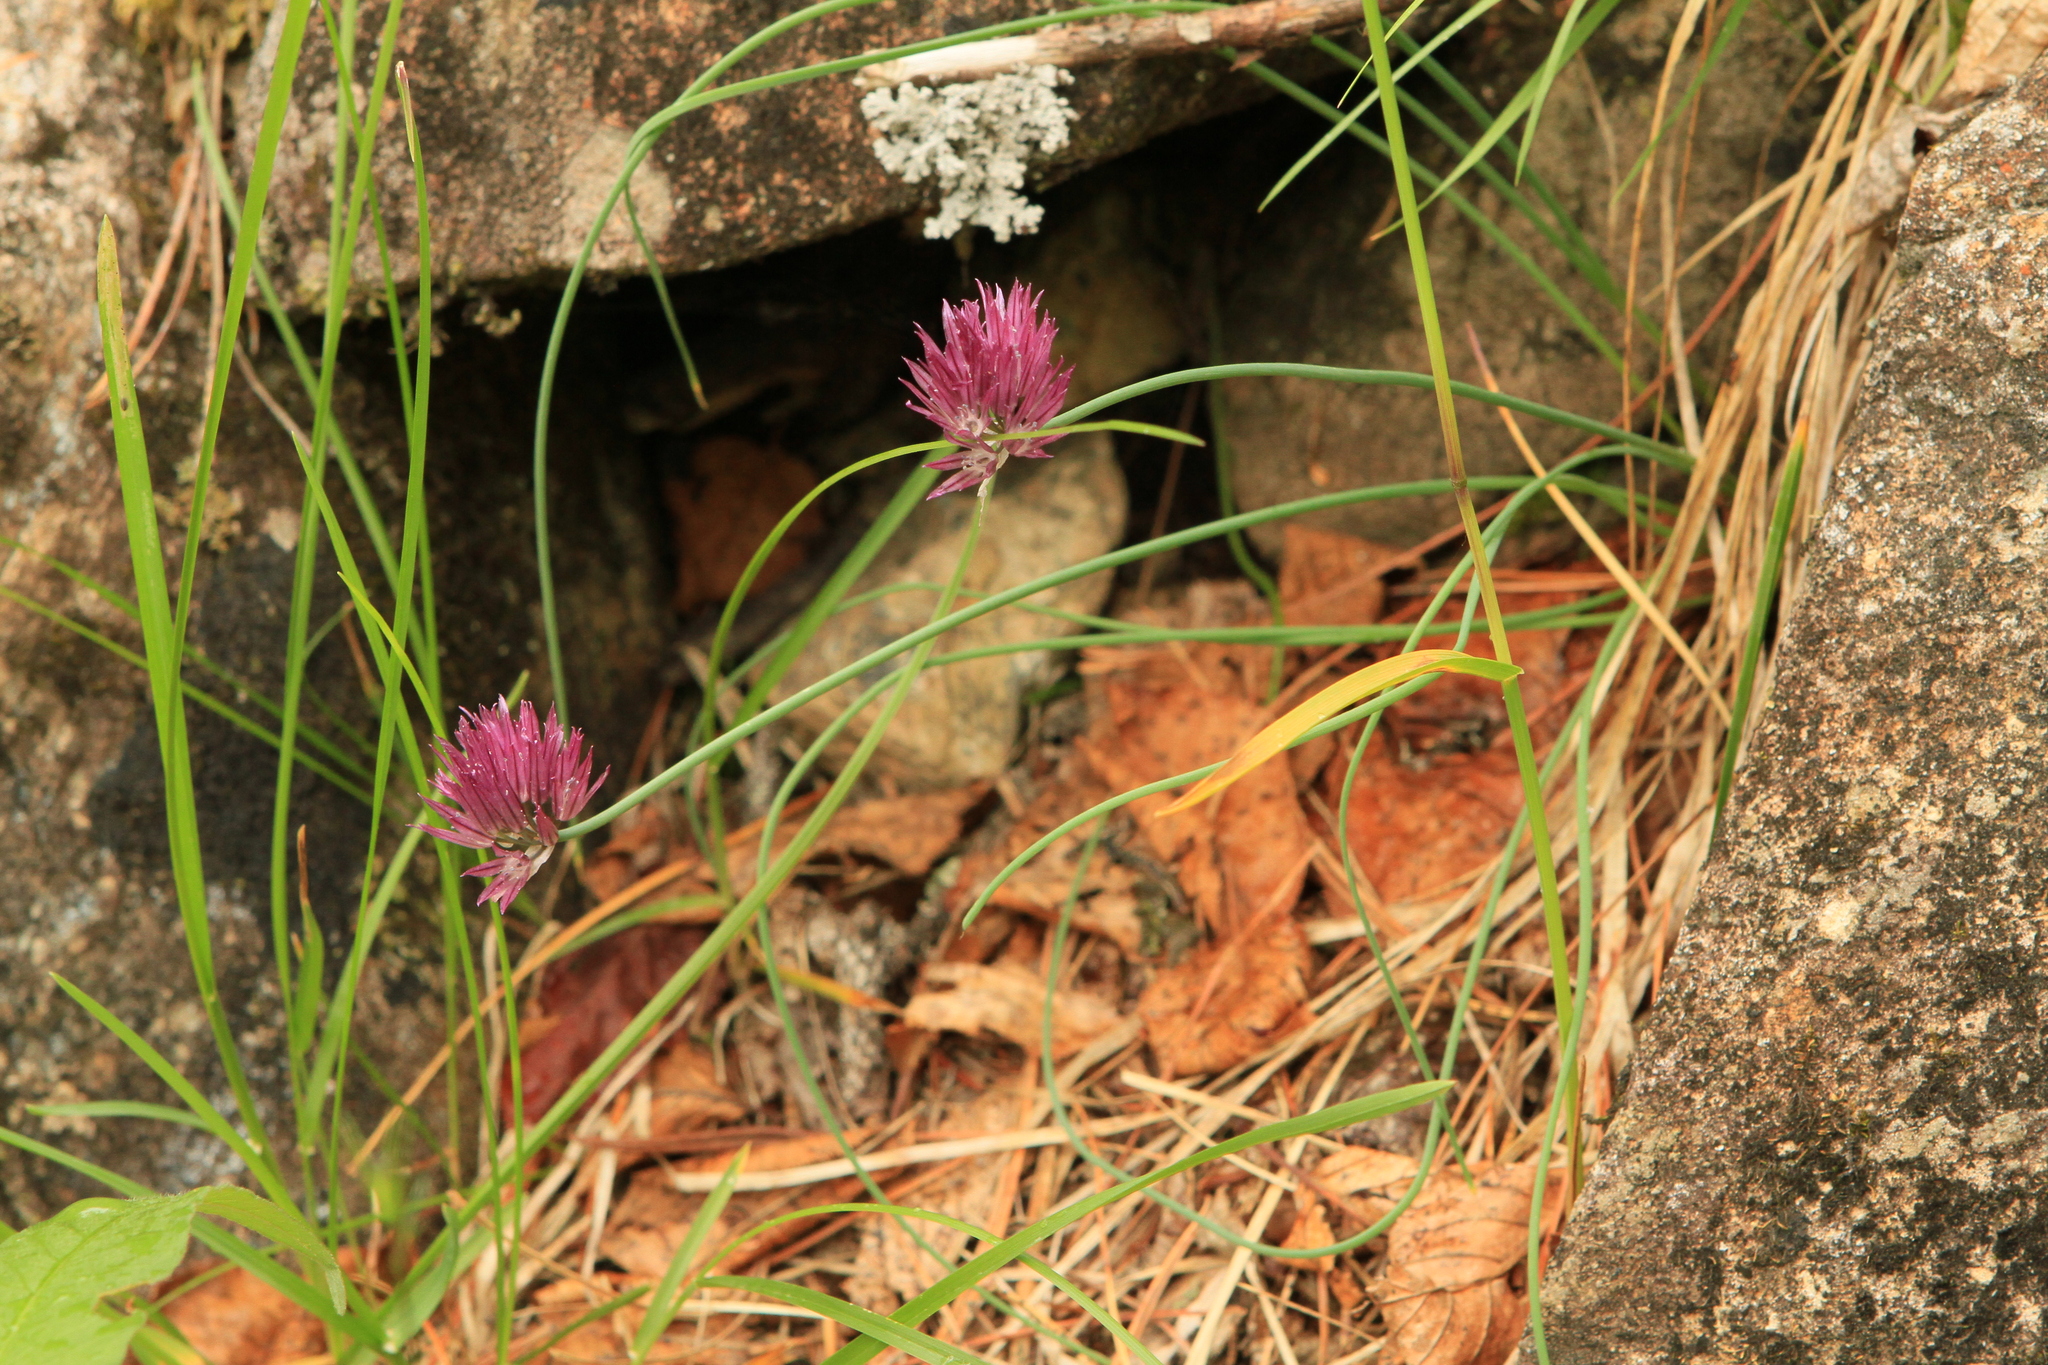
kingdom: Plantae
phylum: Tracheophyta
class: Liliopsida
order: Asparagales
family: Amaryllidaceae
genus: Allium
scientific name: Allium schoenoprasum
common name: Chives
